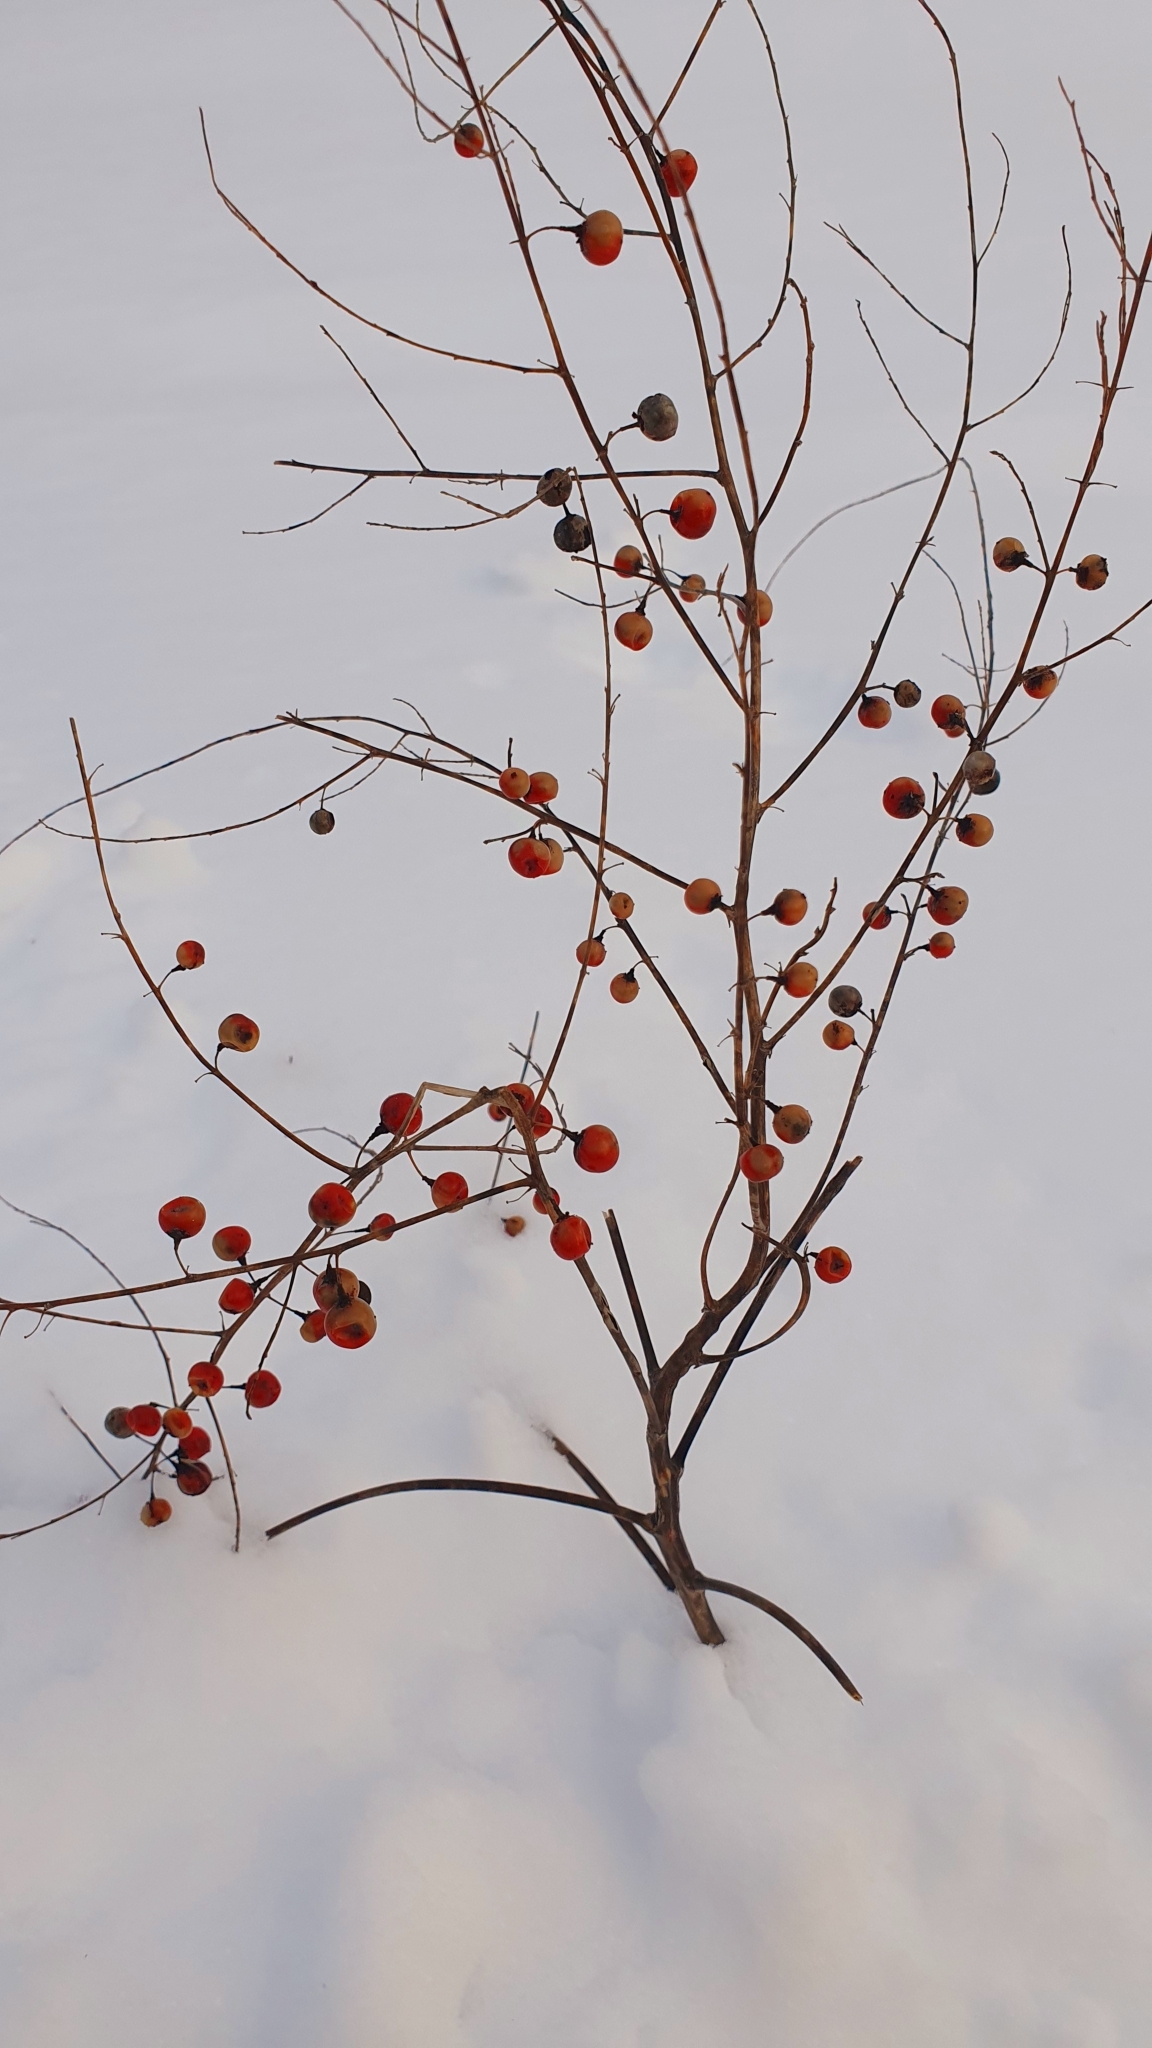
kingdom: Plantae
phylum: Tracheophyta
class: Liliopsida
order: Asparagales
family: Asparagaceae
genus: Asparagus
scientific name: Asparagus officinalis
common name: Garden asparagus
